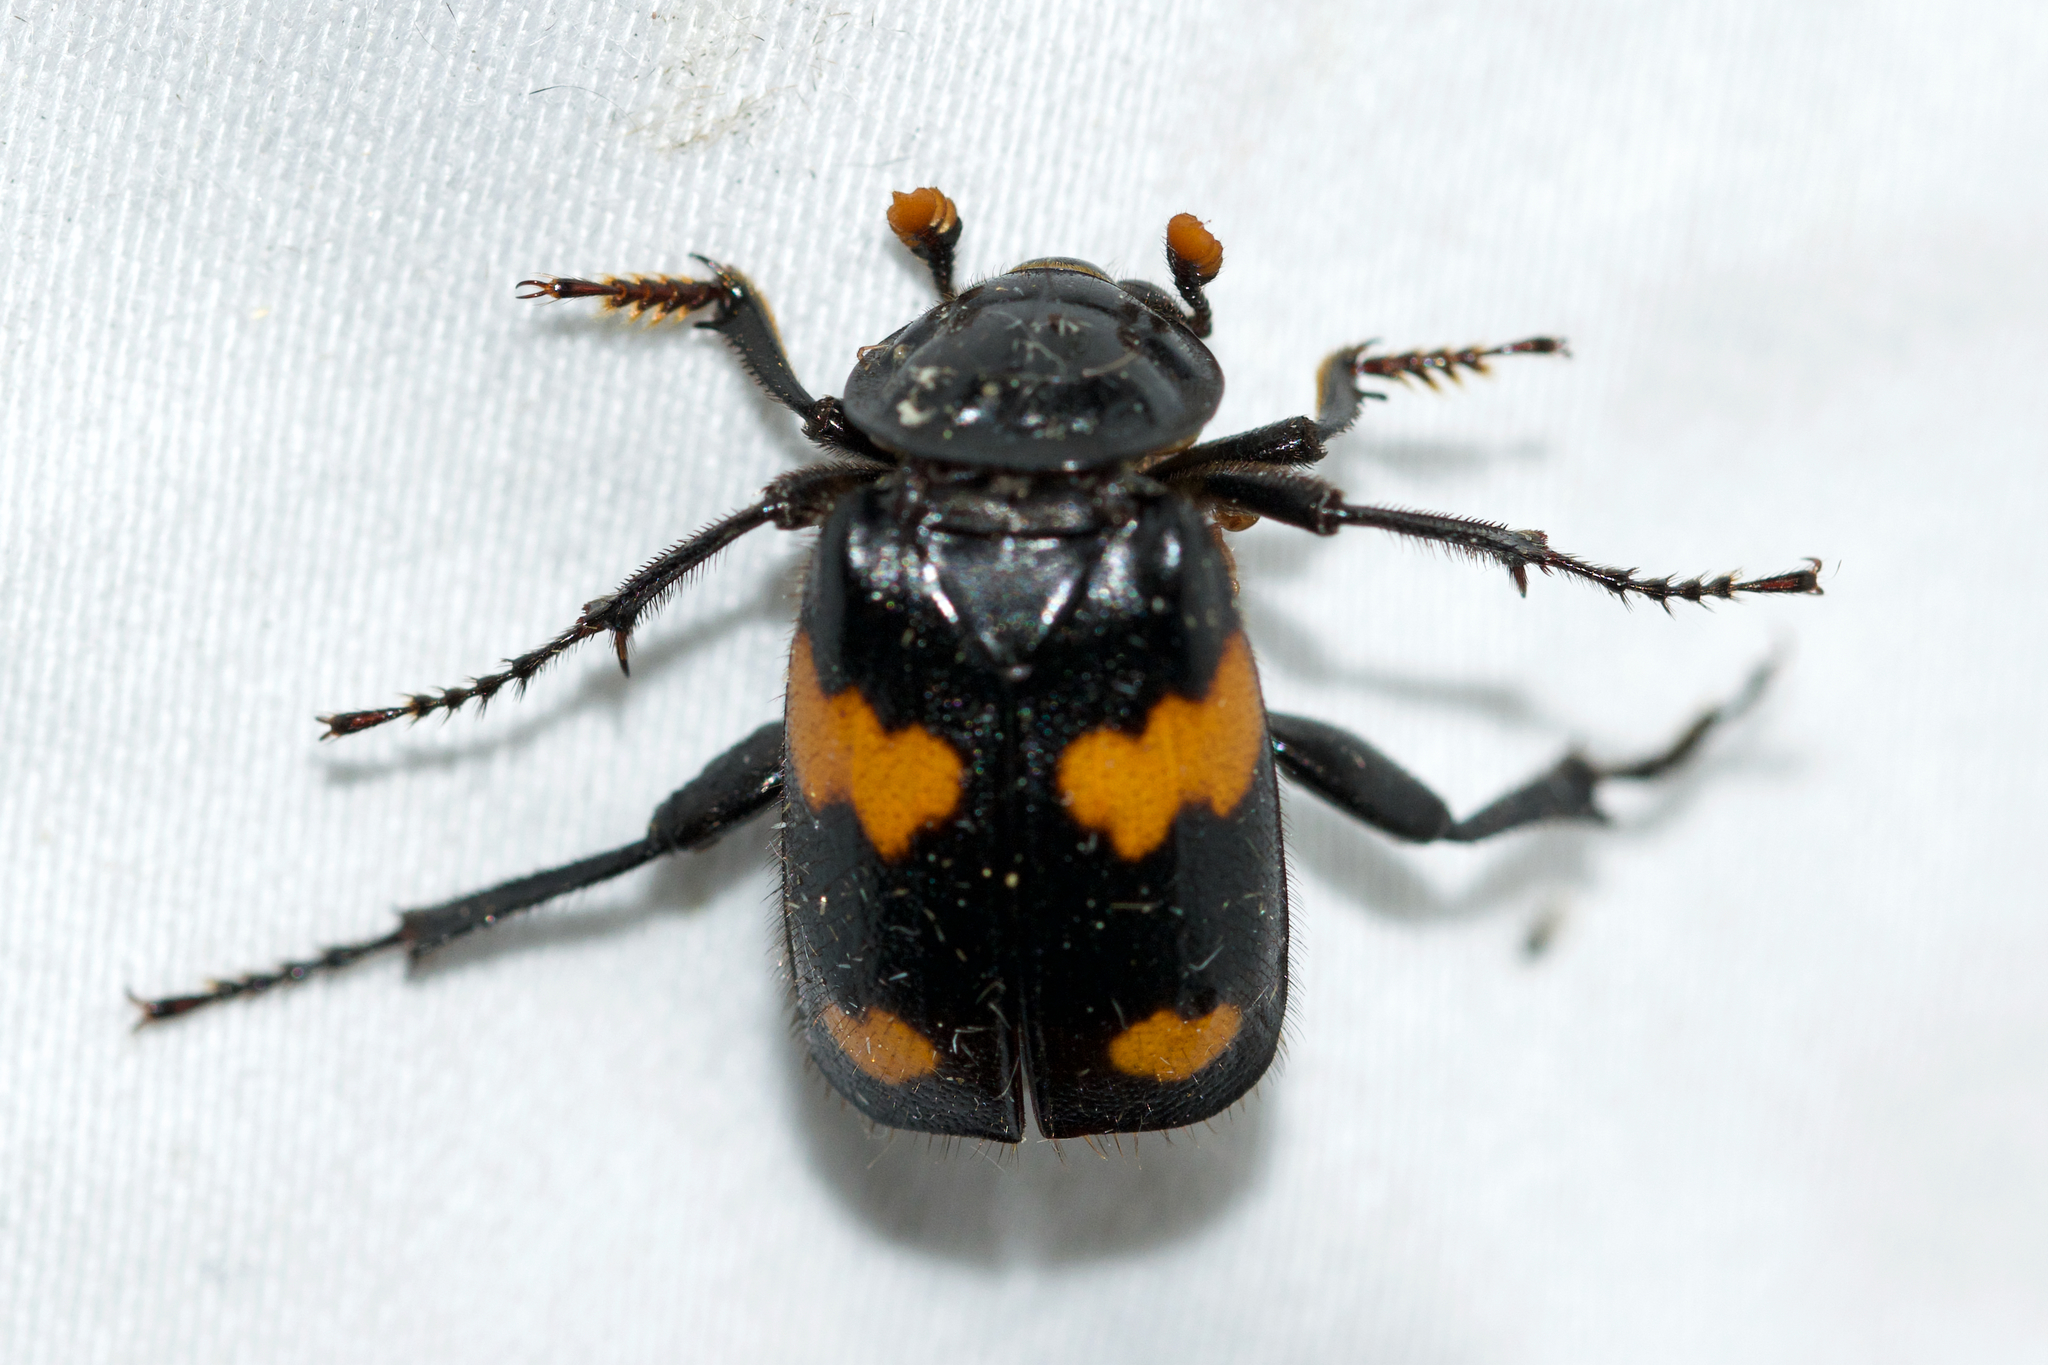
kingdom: Animalia
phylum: Arthropoda
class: Insecta
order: Coleoptera
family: Staphylinidae
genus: Nicrophorus
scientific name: Nicrophorus orbicollis
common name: Roundneck sexton beetle
